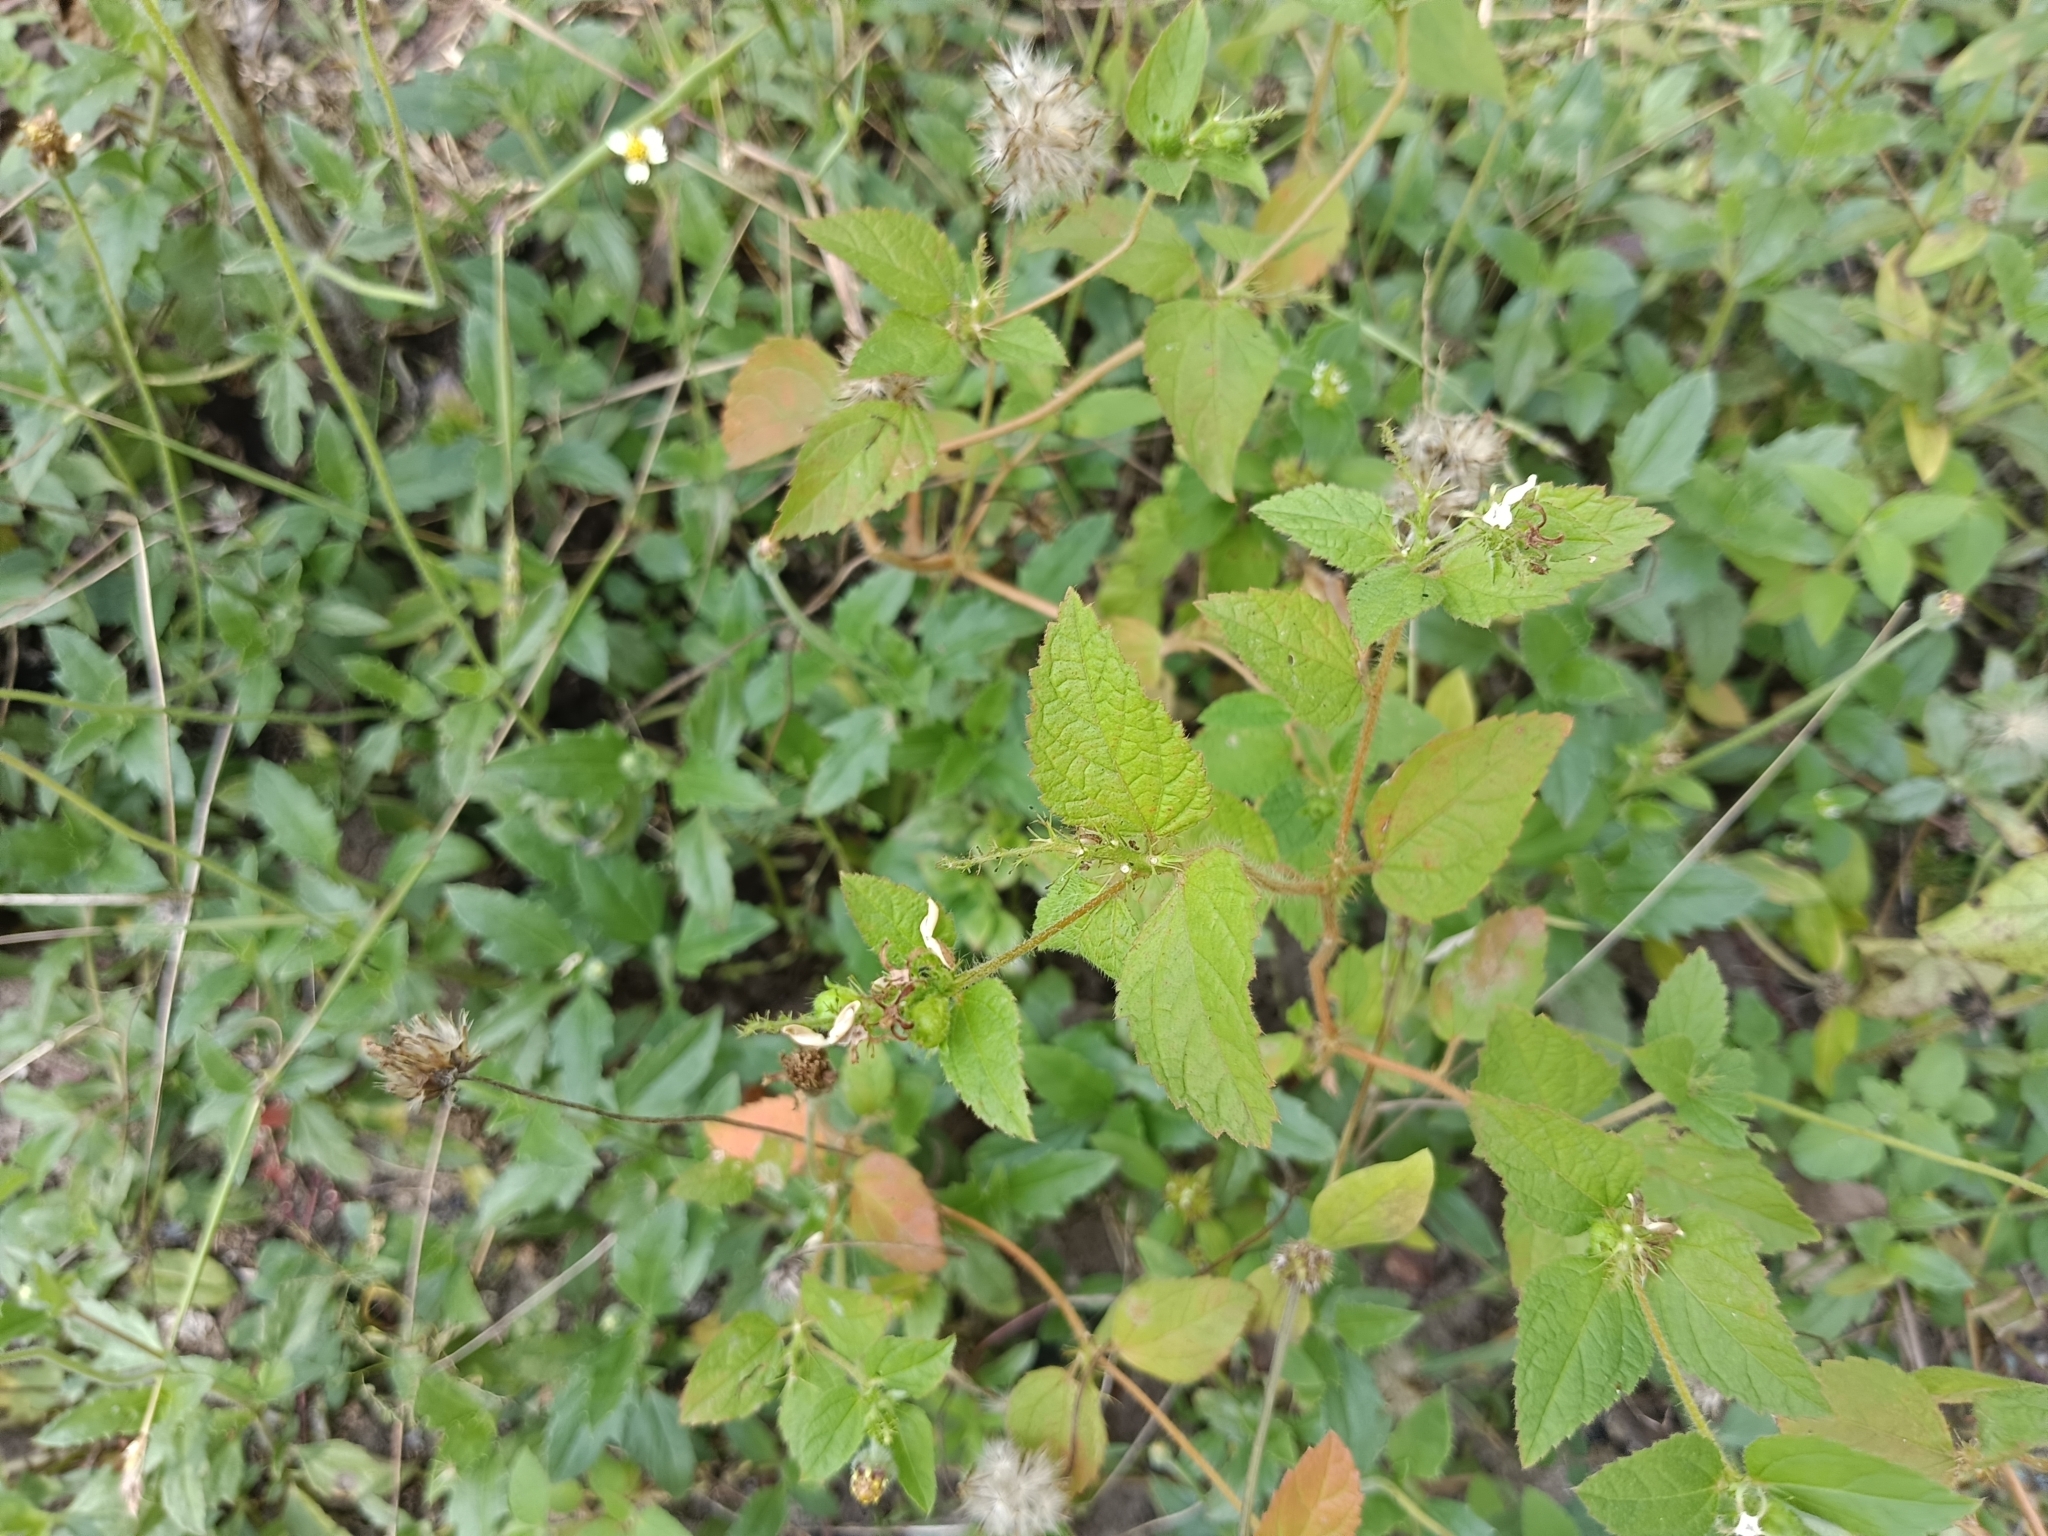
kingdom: Plantae
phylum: Tracheophyta
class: Magnoliopsida
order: Malpighiales
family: Euphorbiaceae
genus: Croton
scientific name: Croton hirtus
